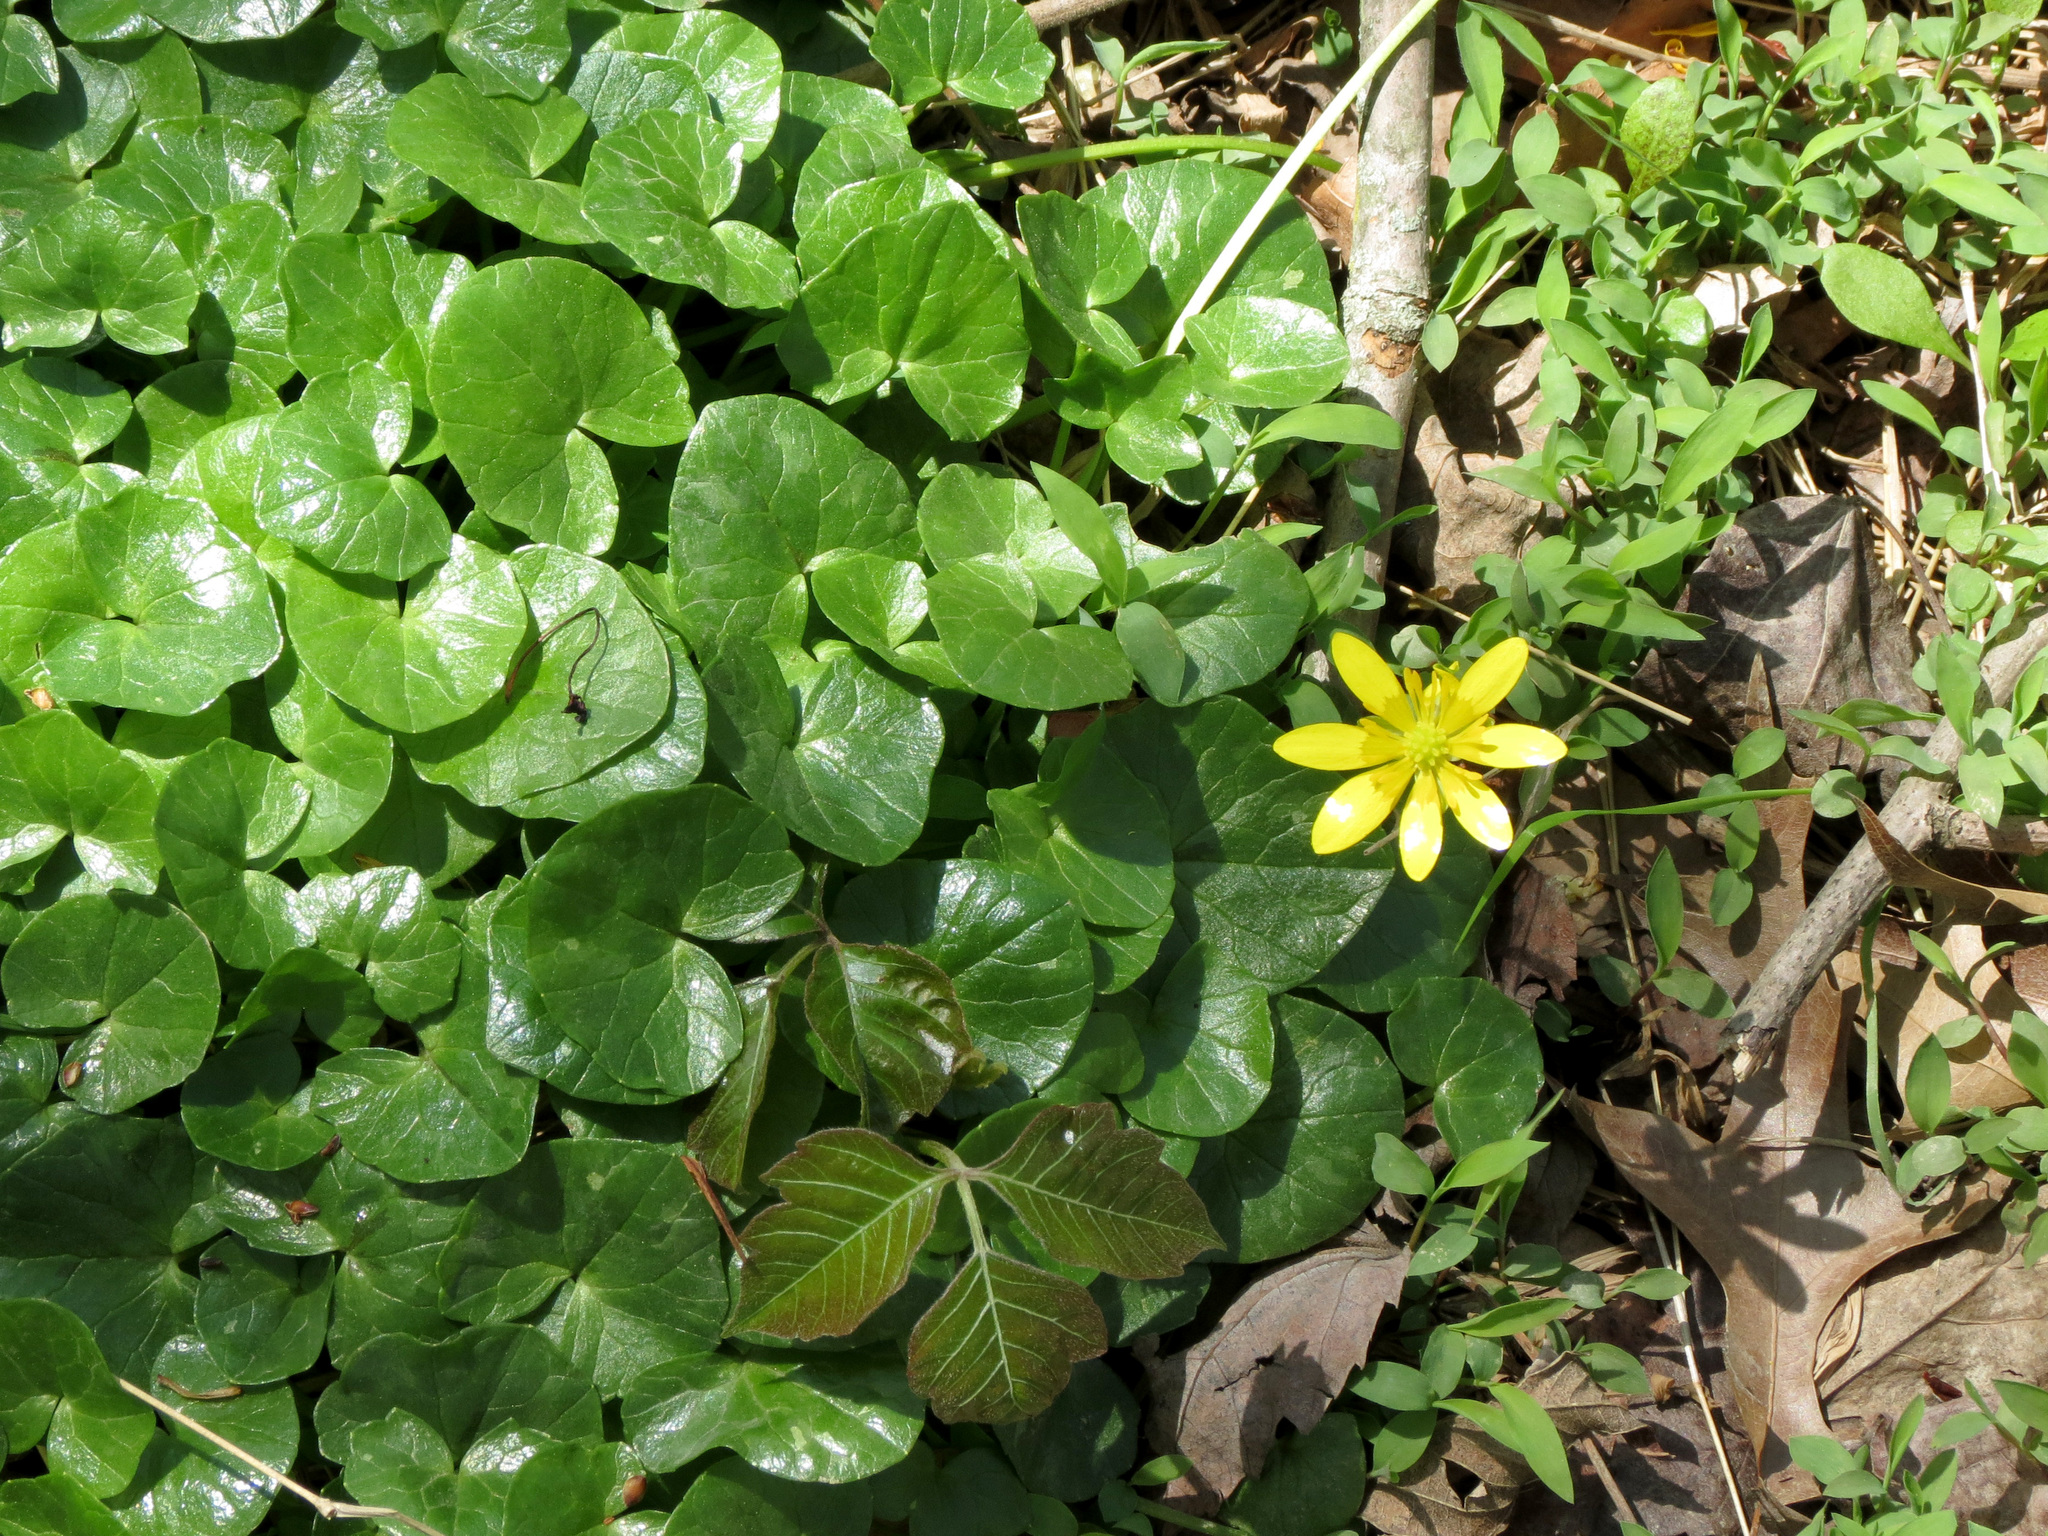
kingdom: Plantae
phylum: Tracheophyta
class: Magnoliopsida
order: Ranunculales
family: Ranunculaceae
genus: Ficaria
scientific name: Ficaria verna
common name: Lesser celandine
